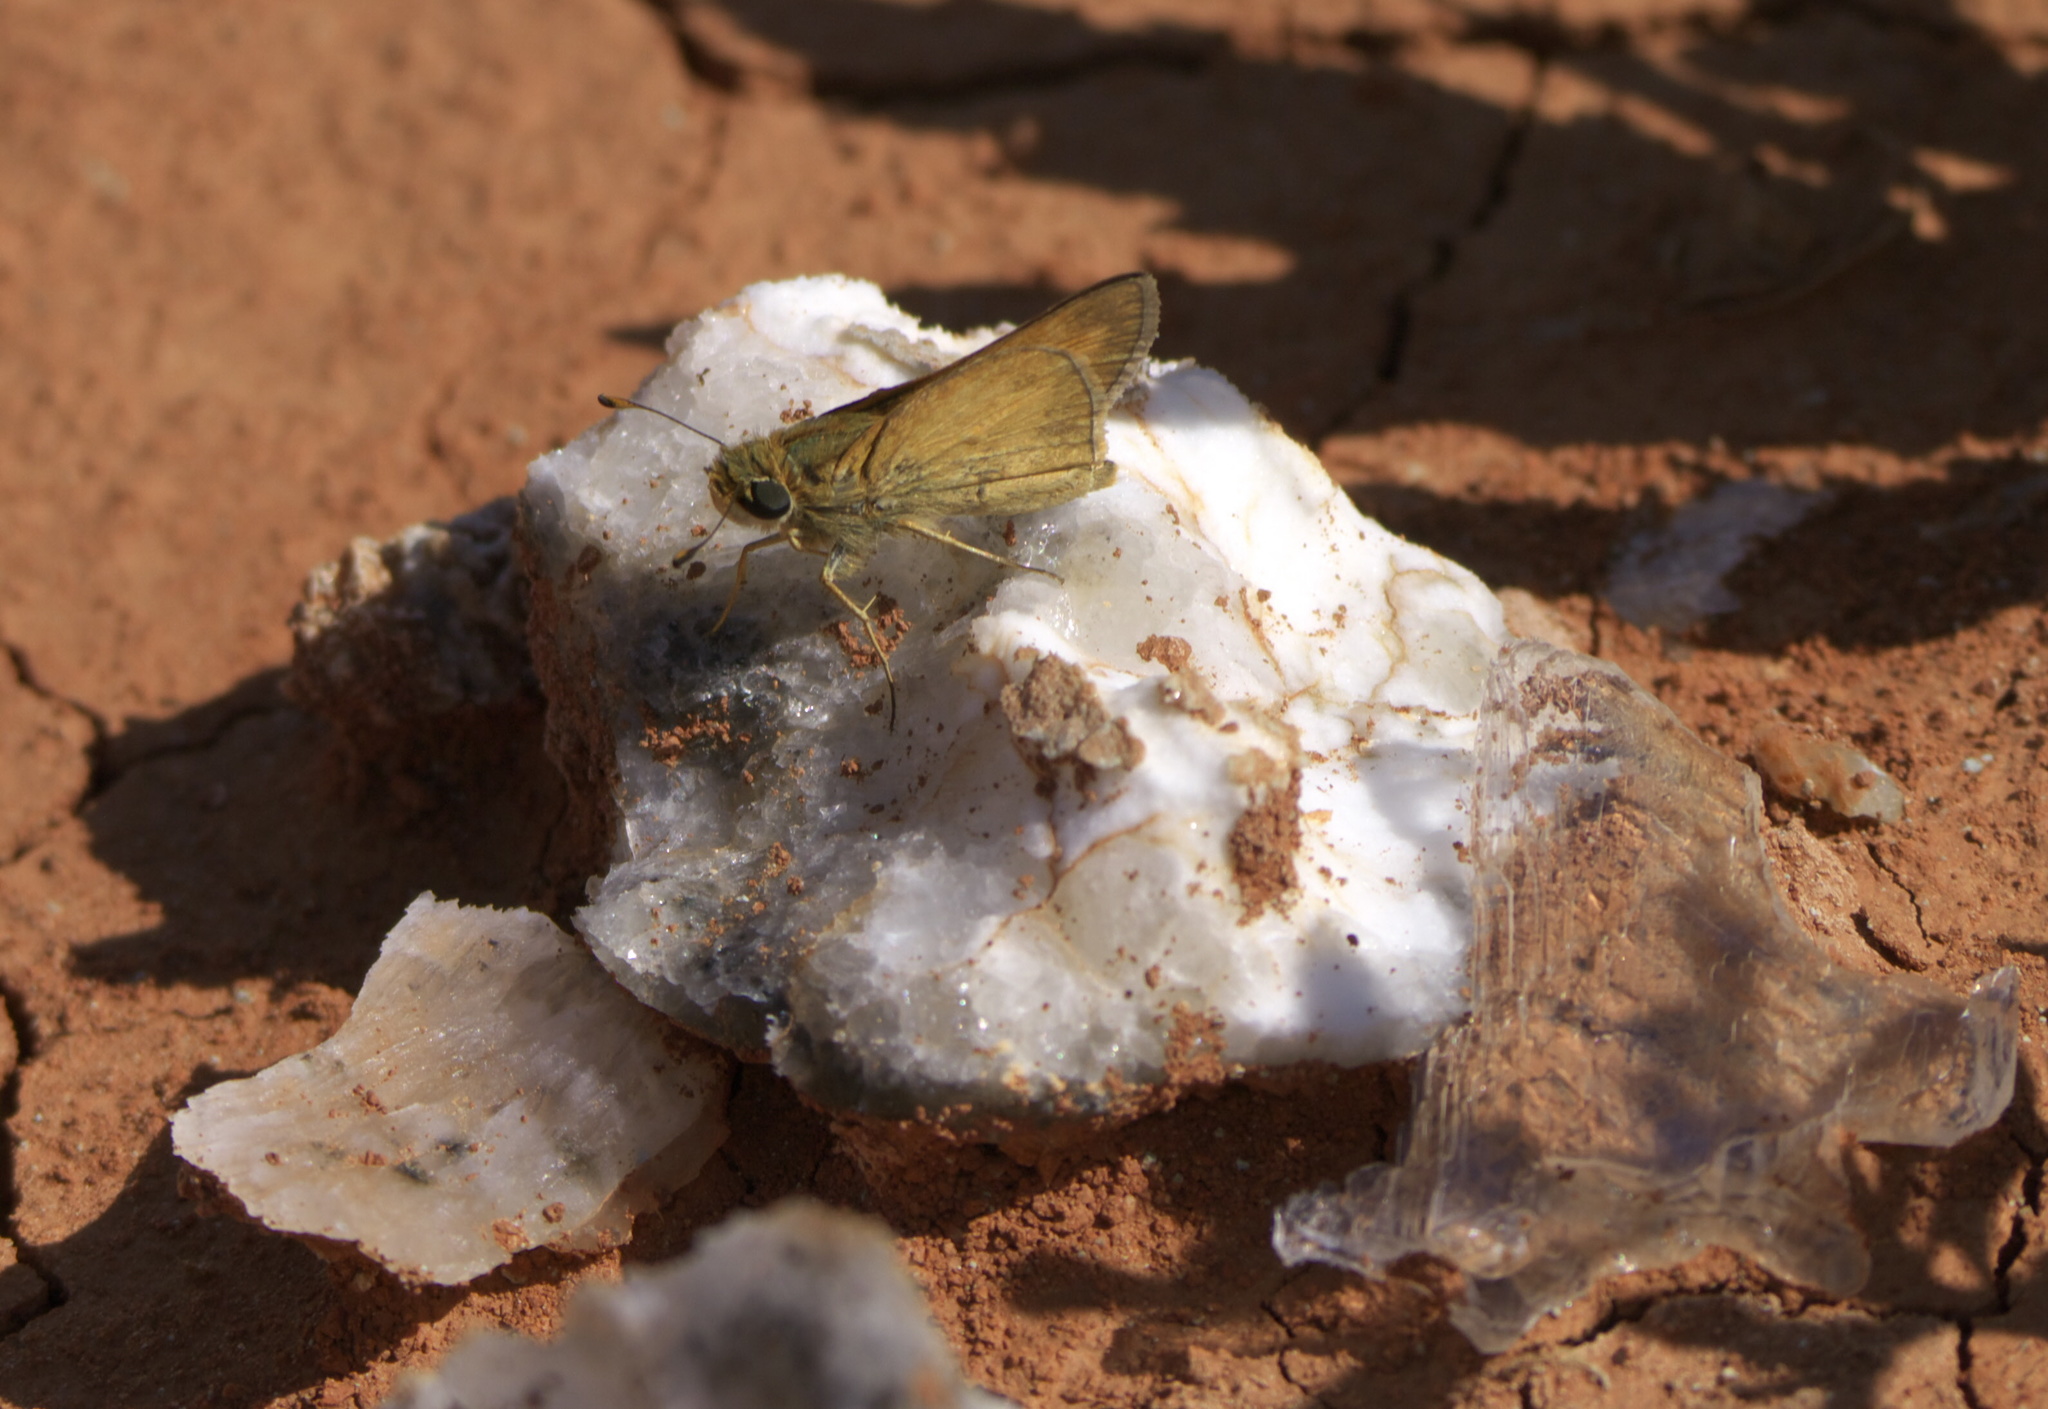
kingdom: Animalia
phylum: Arthropoda
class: Insecta
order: Lepidoptera
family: Hesperiidae
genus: Atalopedes
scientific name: Atalopedes
